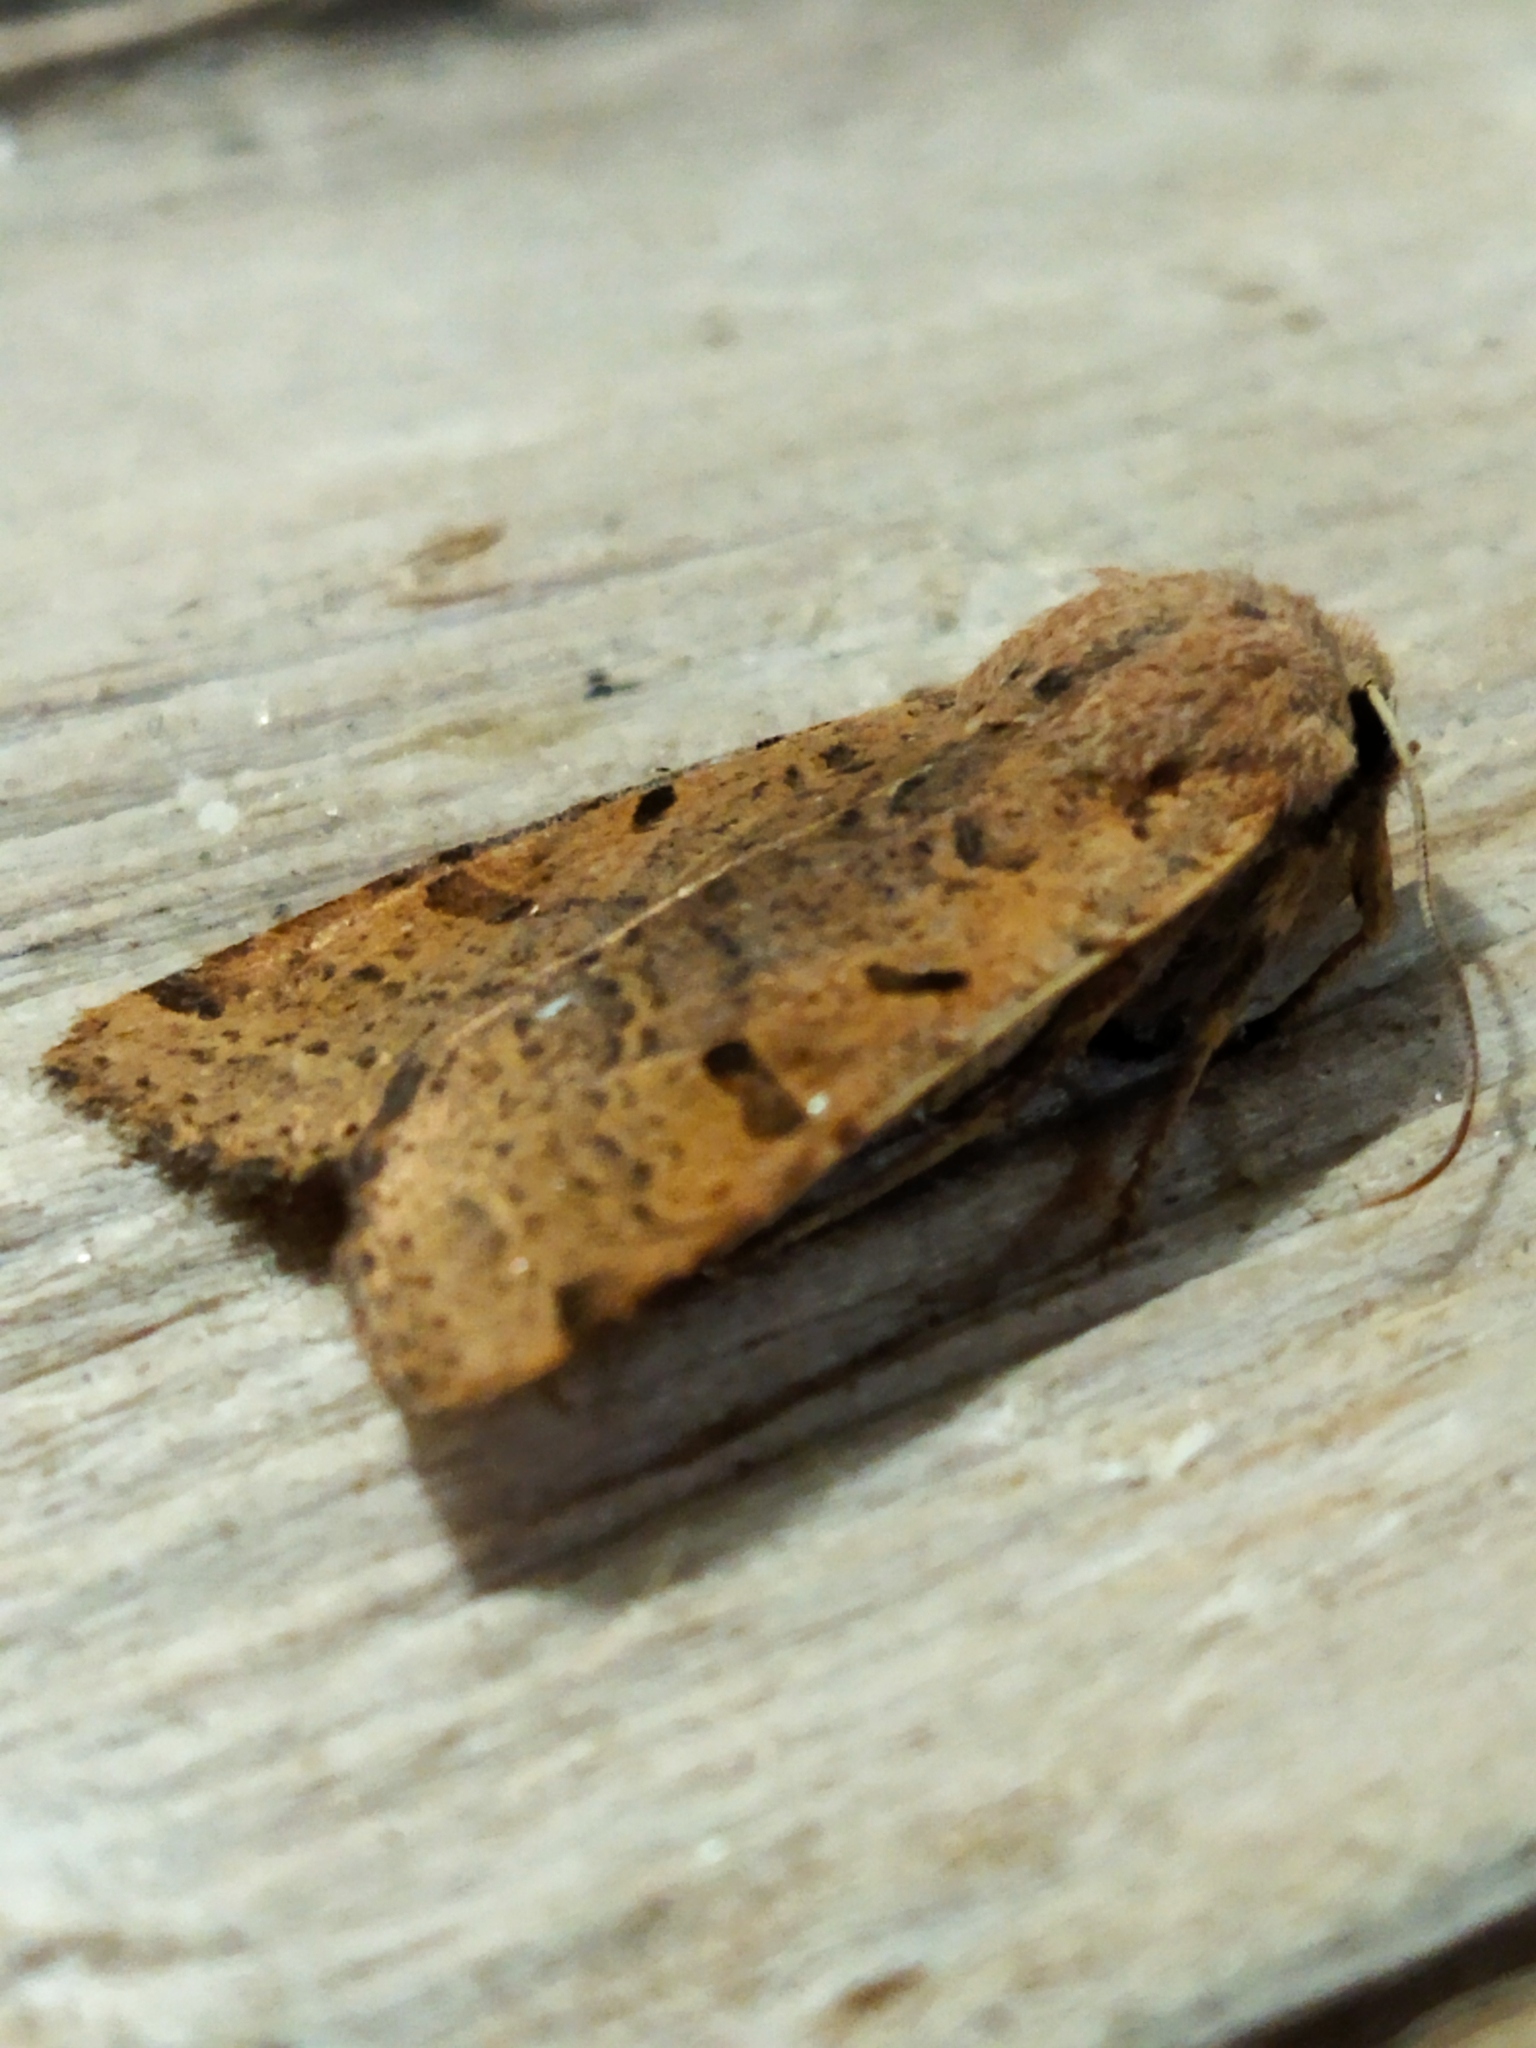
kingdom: Animalia
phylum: Arthropoda
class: Insecta
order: Lepidoptera
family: Noctuidae
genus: Agrochola
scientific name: Agrochola lychnidis
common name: Beaded chestnut
